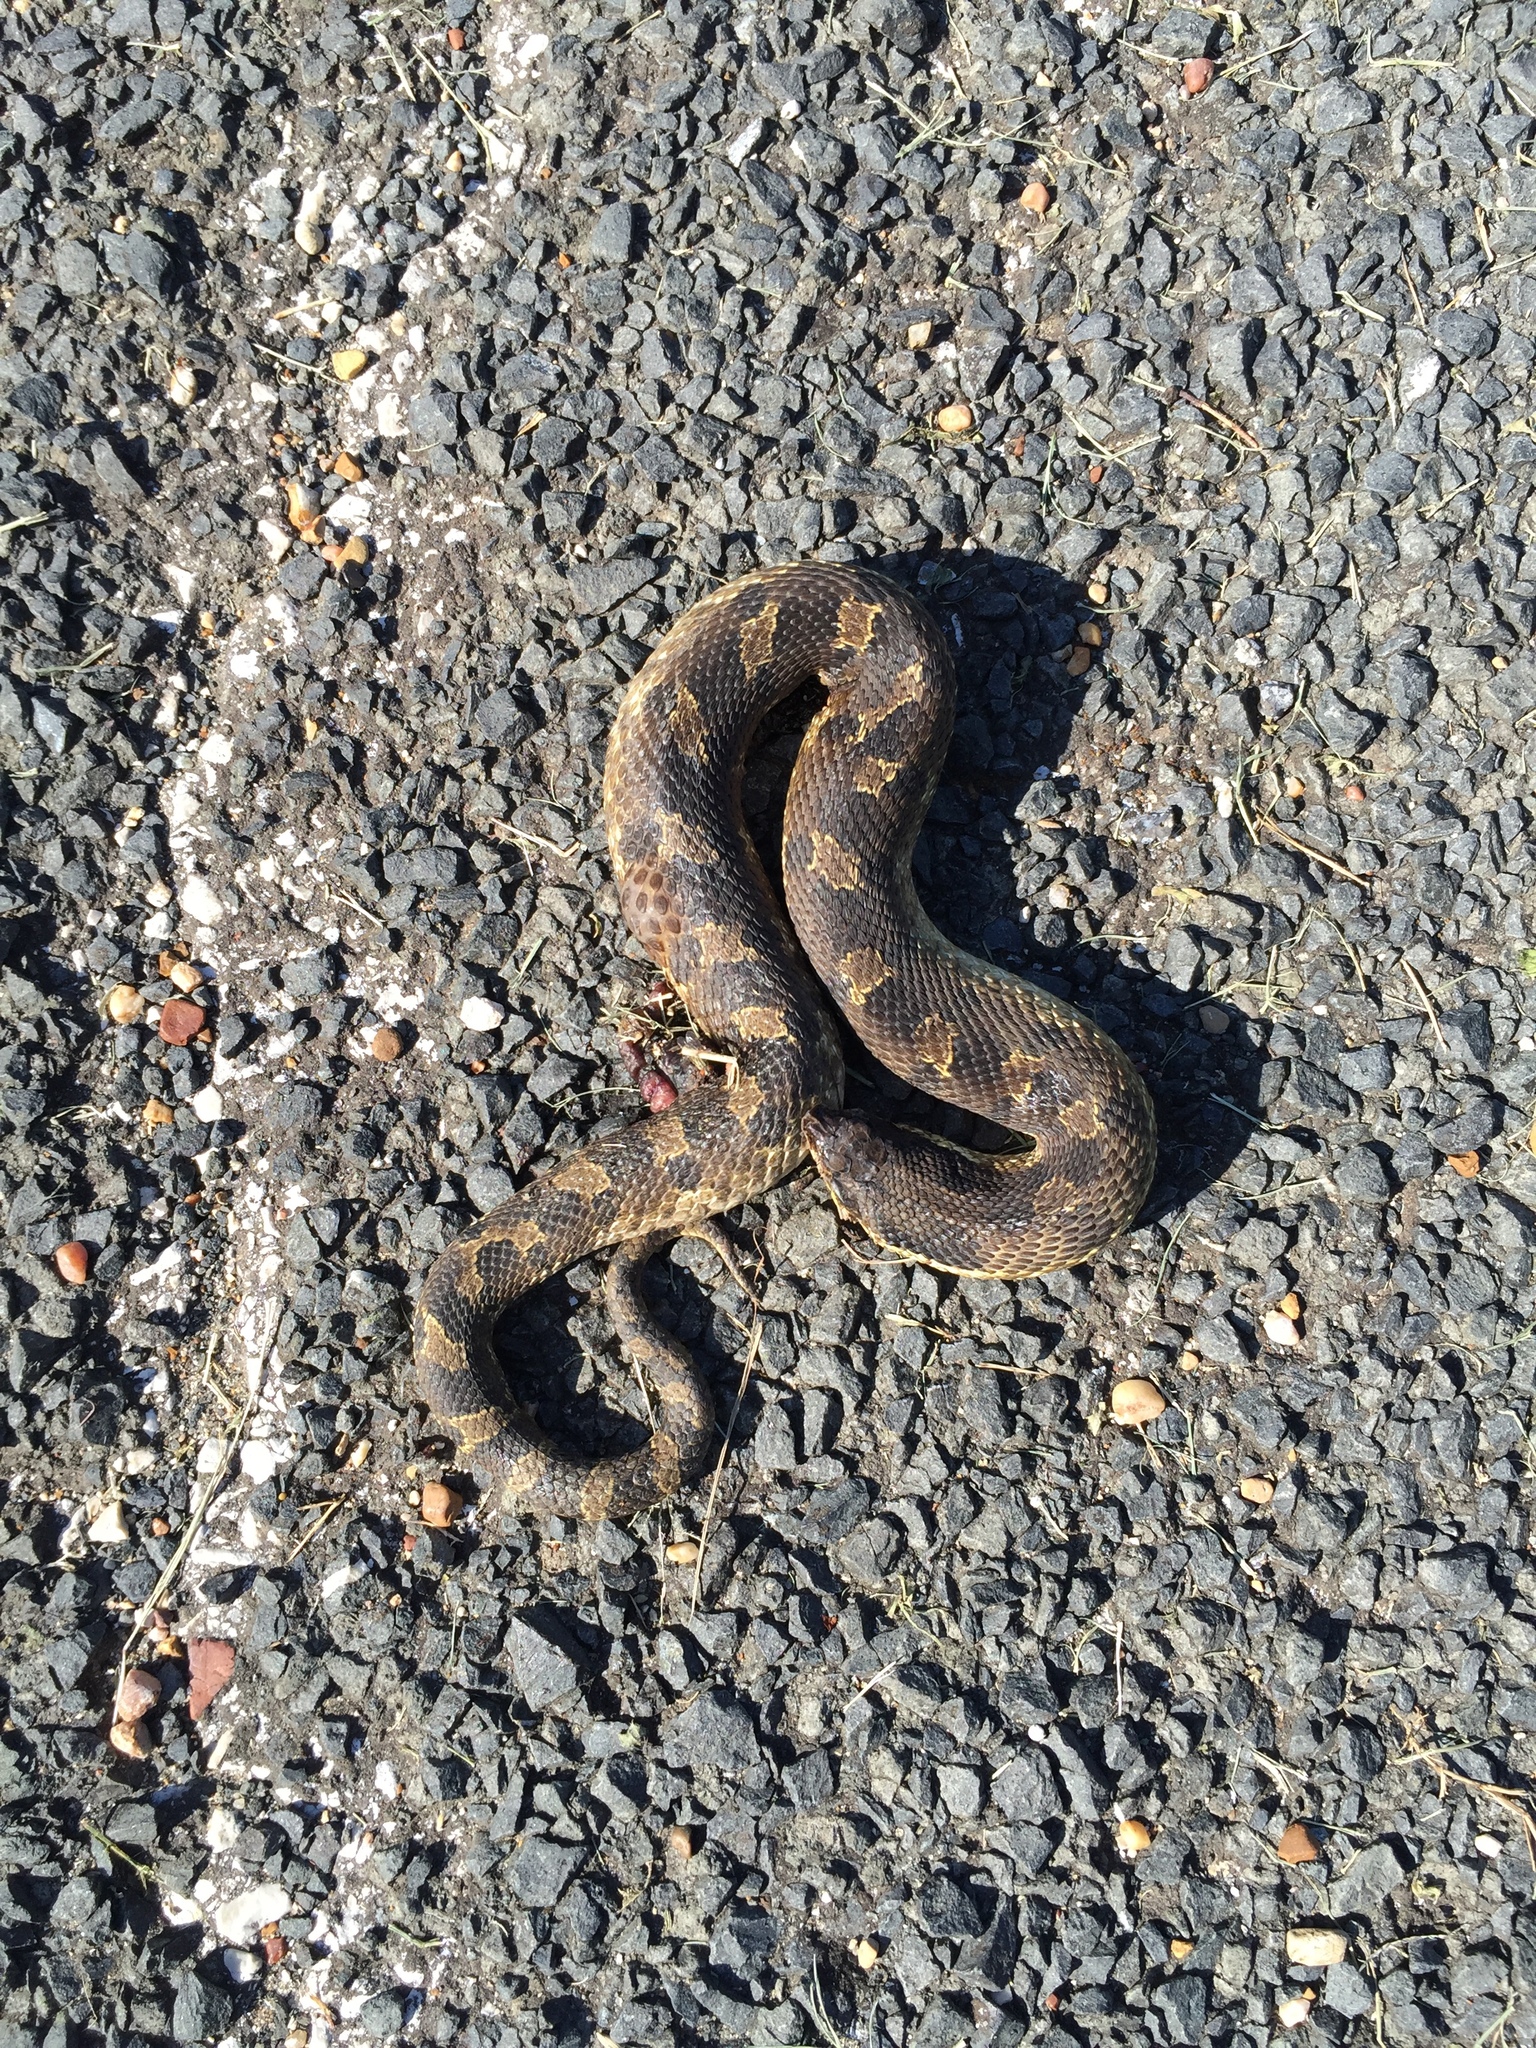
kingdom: Animalia
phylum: Chordata
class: Squamata
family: Colubridae
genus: Heterodon
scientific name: Heterodon platirhinos
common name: Eastern hognose snake
